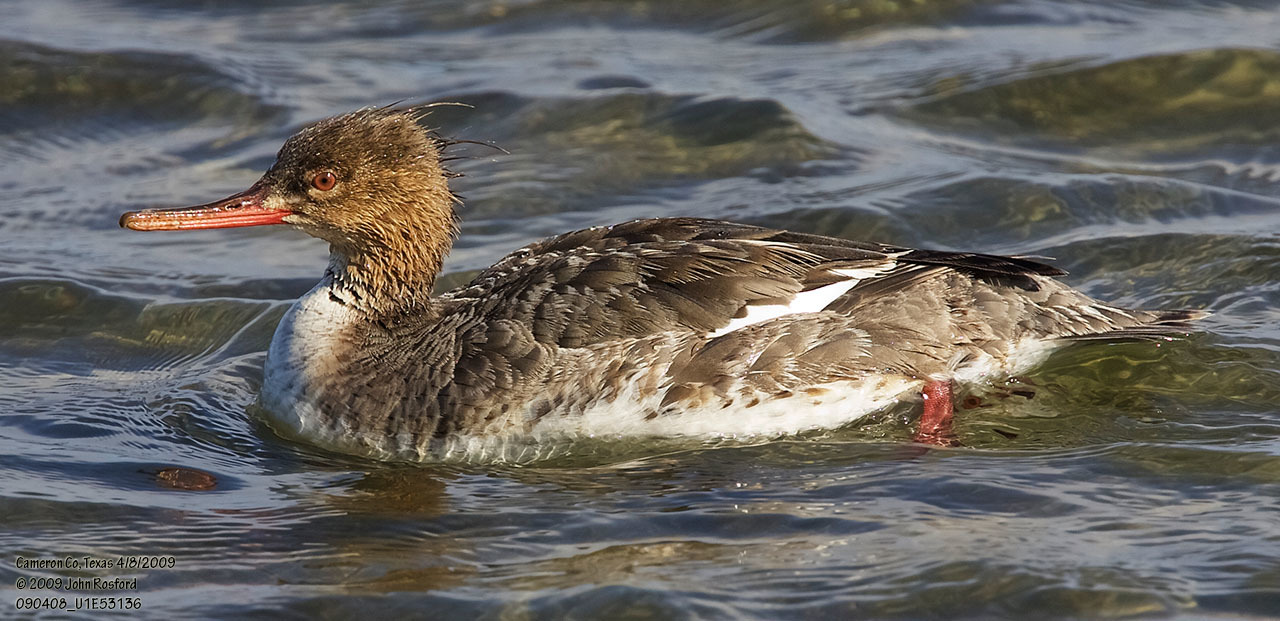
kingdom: Animalia
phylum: Chordata
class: Aves
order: Anseriformes
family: Anatidae
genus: Mergus
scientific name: Mergus serrator
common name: Red-breasted merganser
